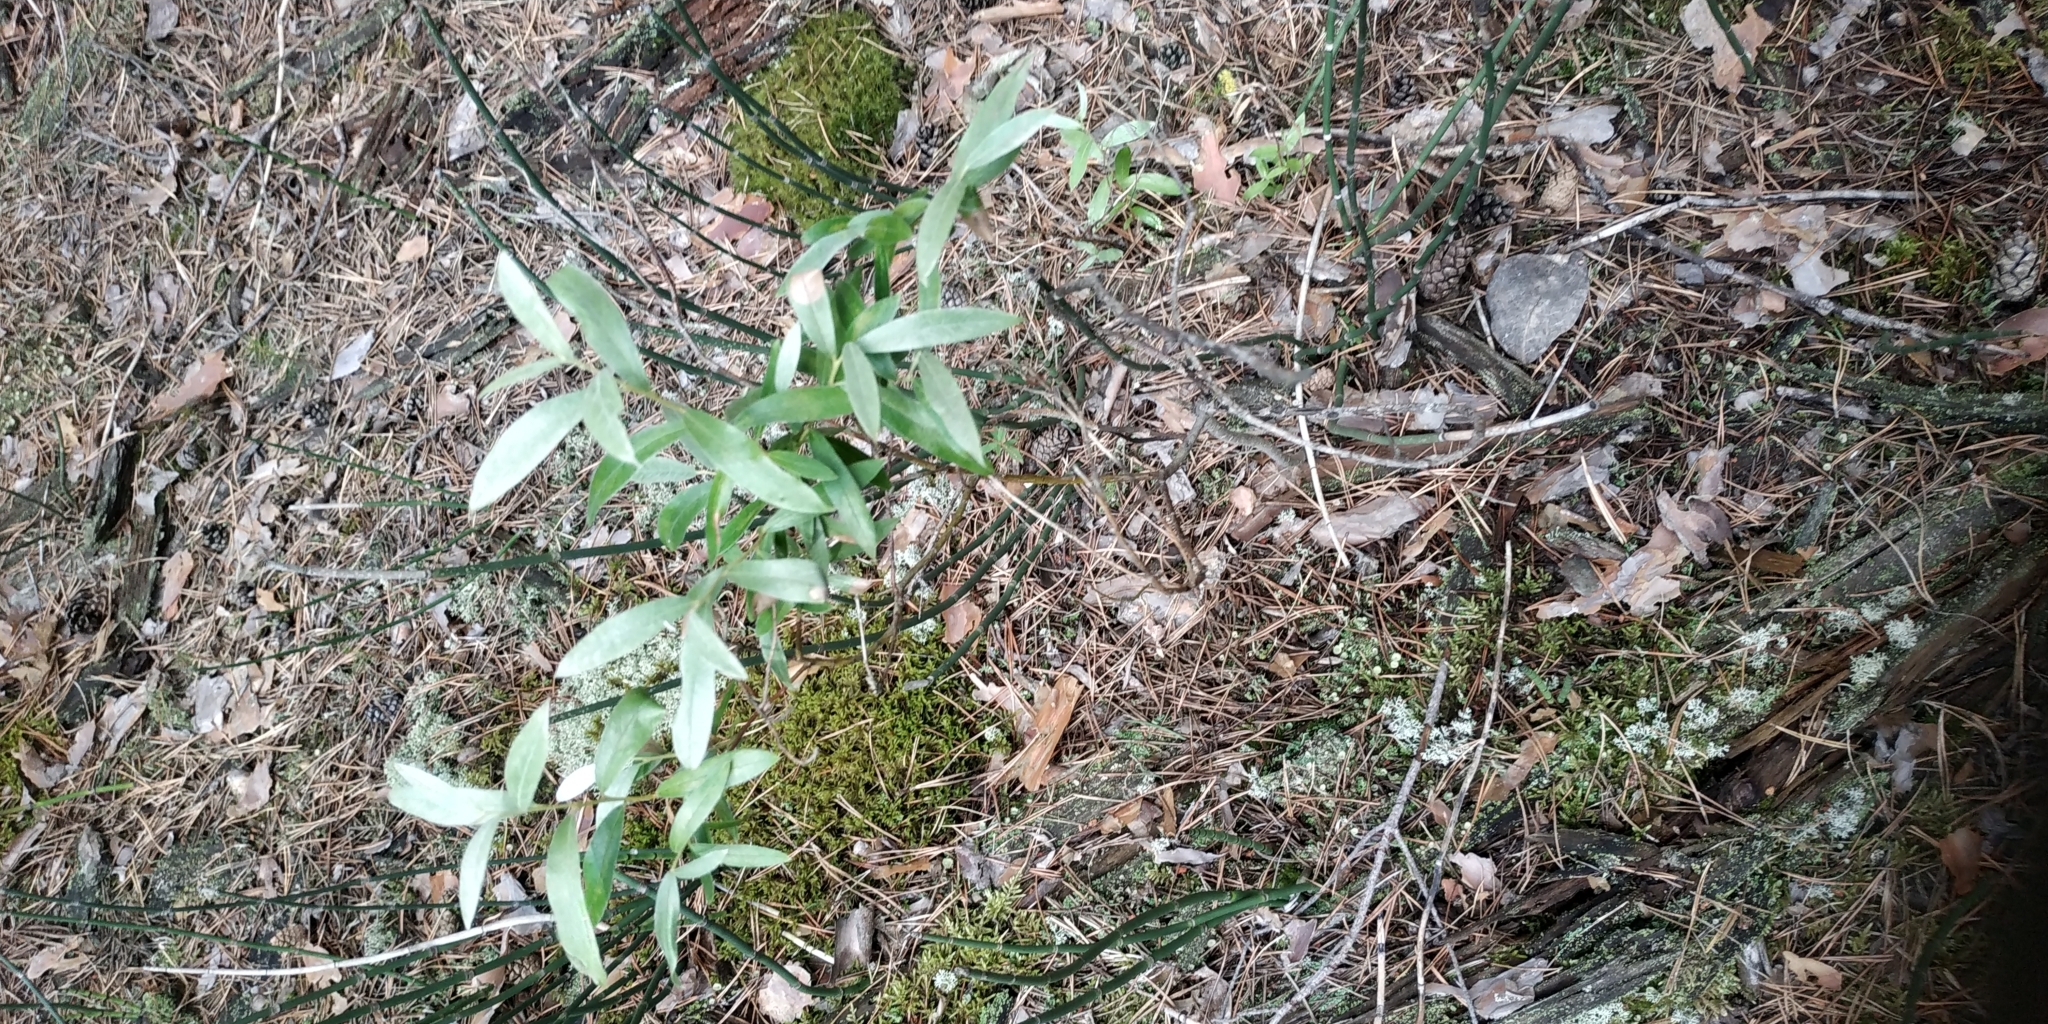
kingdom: Plantae
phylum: Tracheophyta
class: Magnoliopsida
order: Malpighiales
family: Salicaceae
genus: Salix
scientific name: Salix rosmarinifolia
